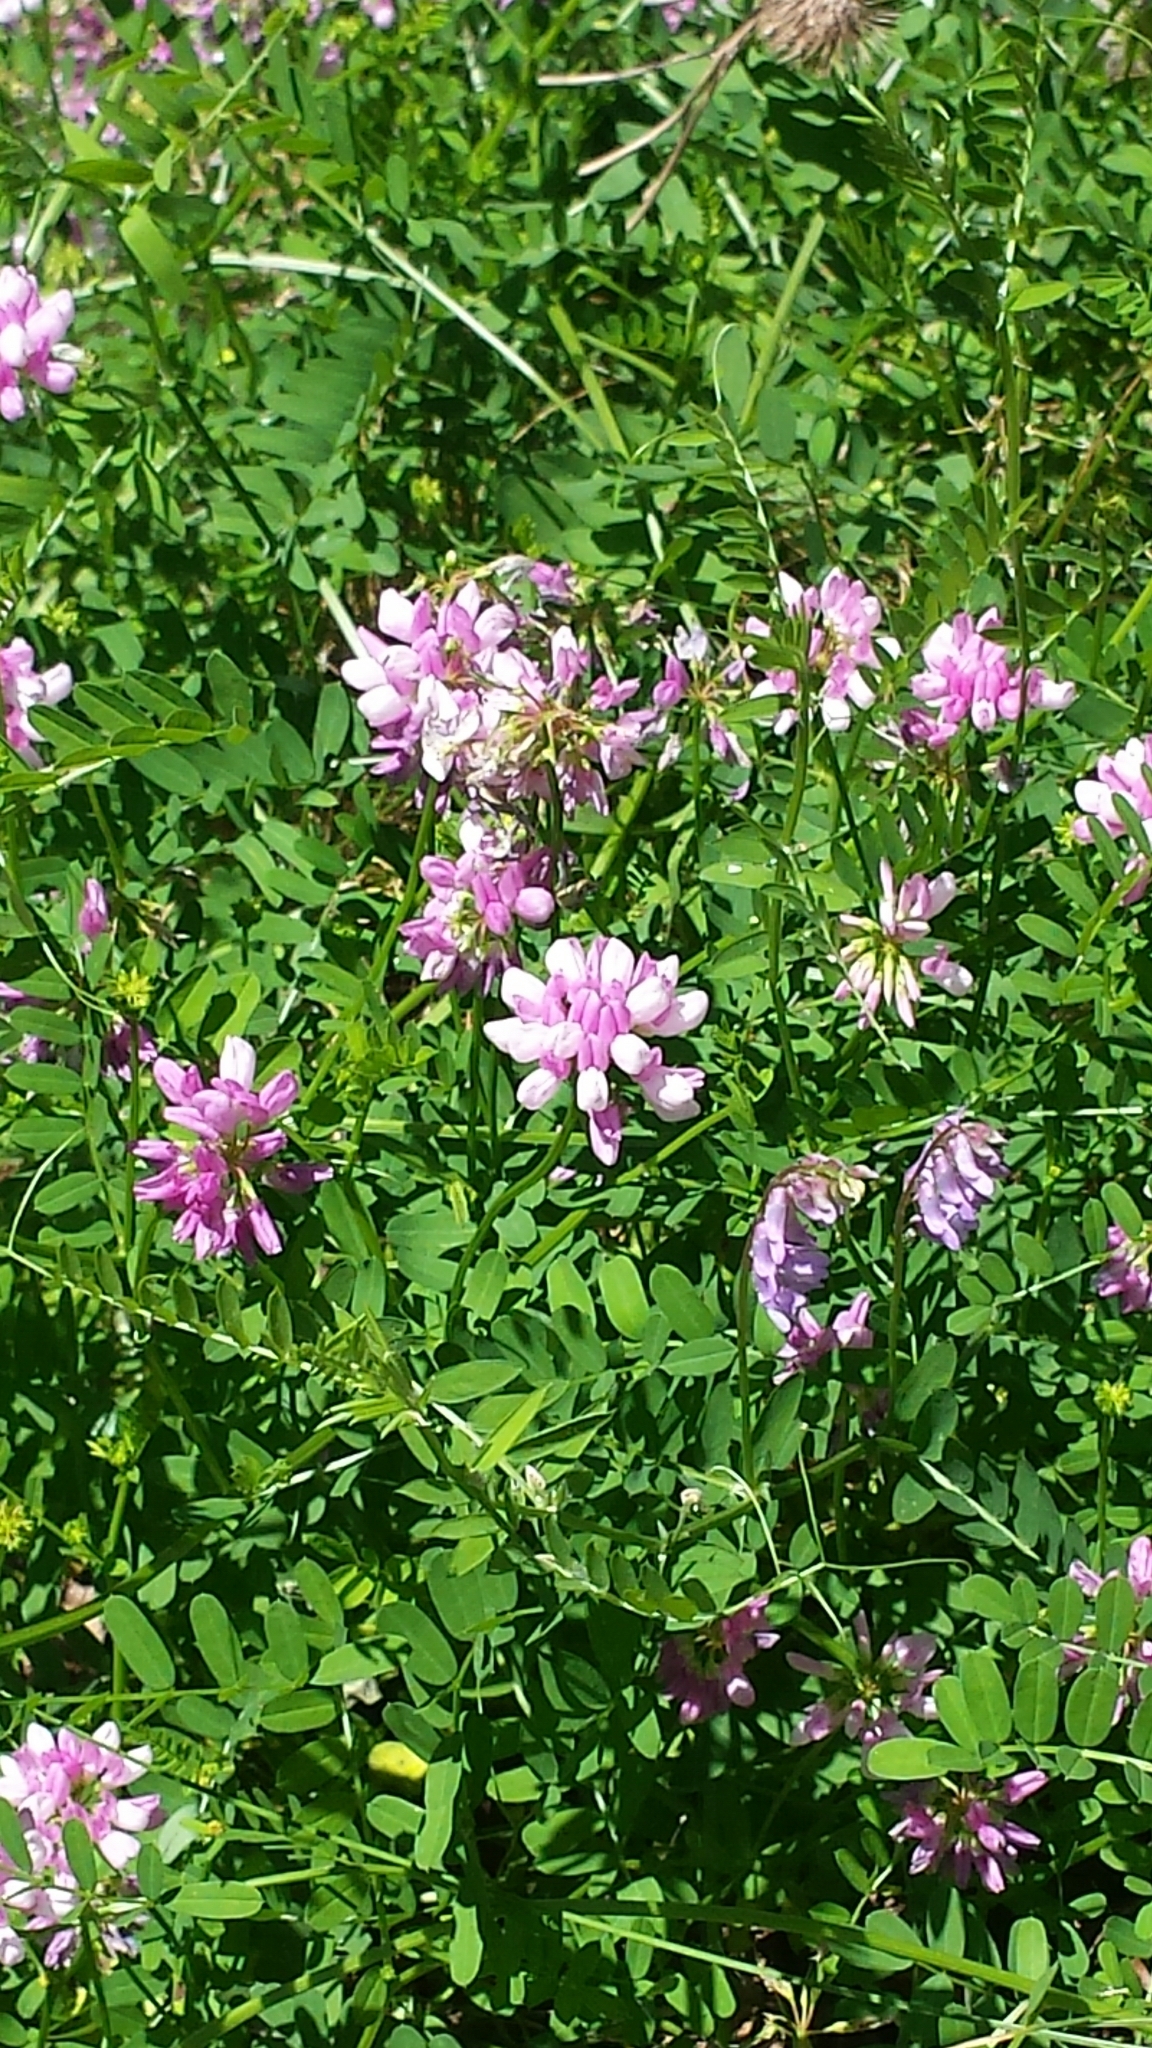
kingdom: Plantae
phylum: Tracheophyta
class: Magnoliopsida
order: Fabales
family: Fabaceae
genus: Coronilla
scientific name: Coronilla varia
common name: Crownvetch
